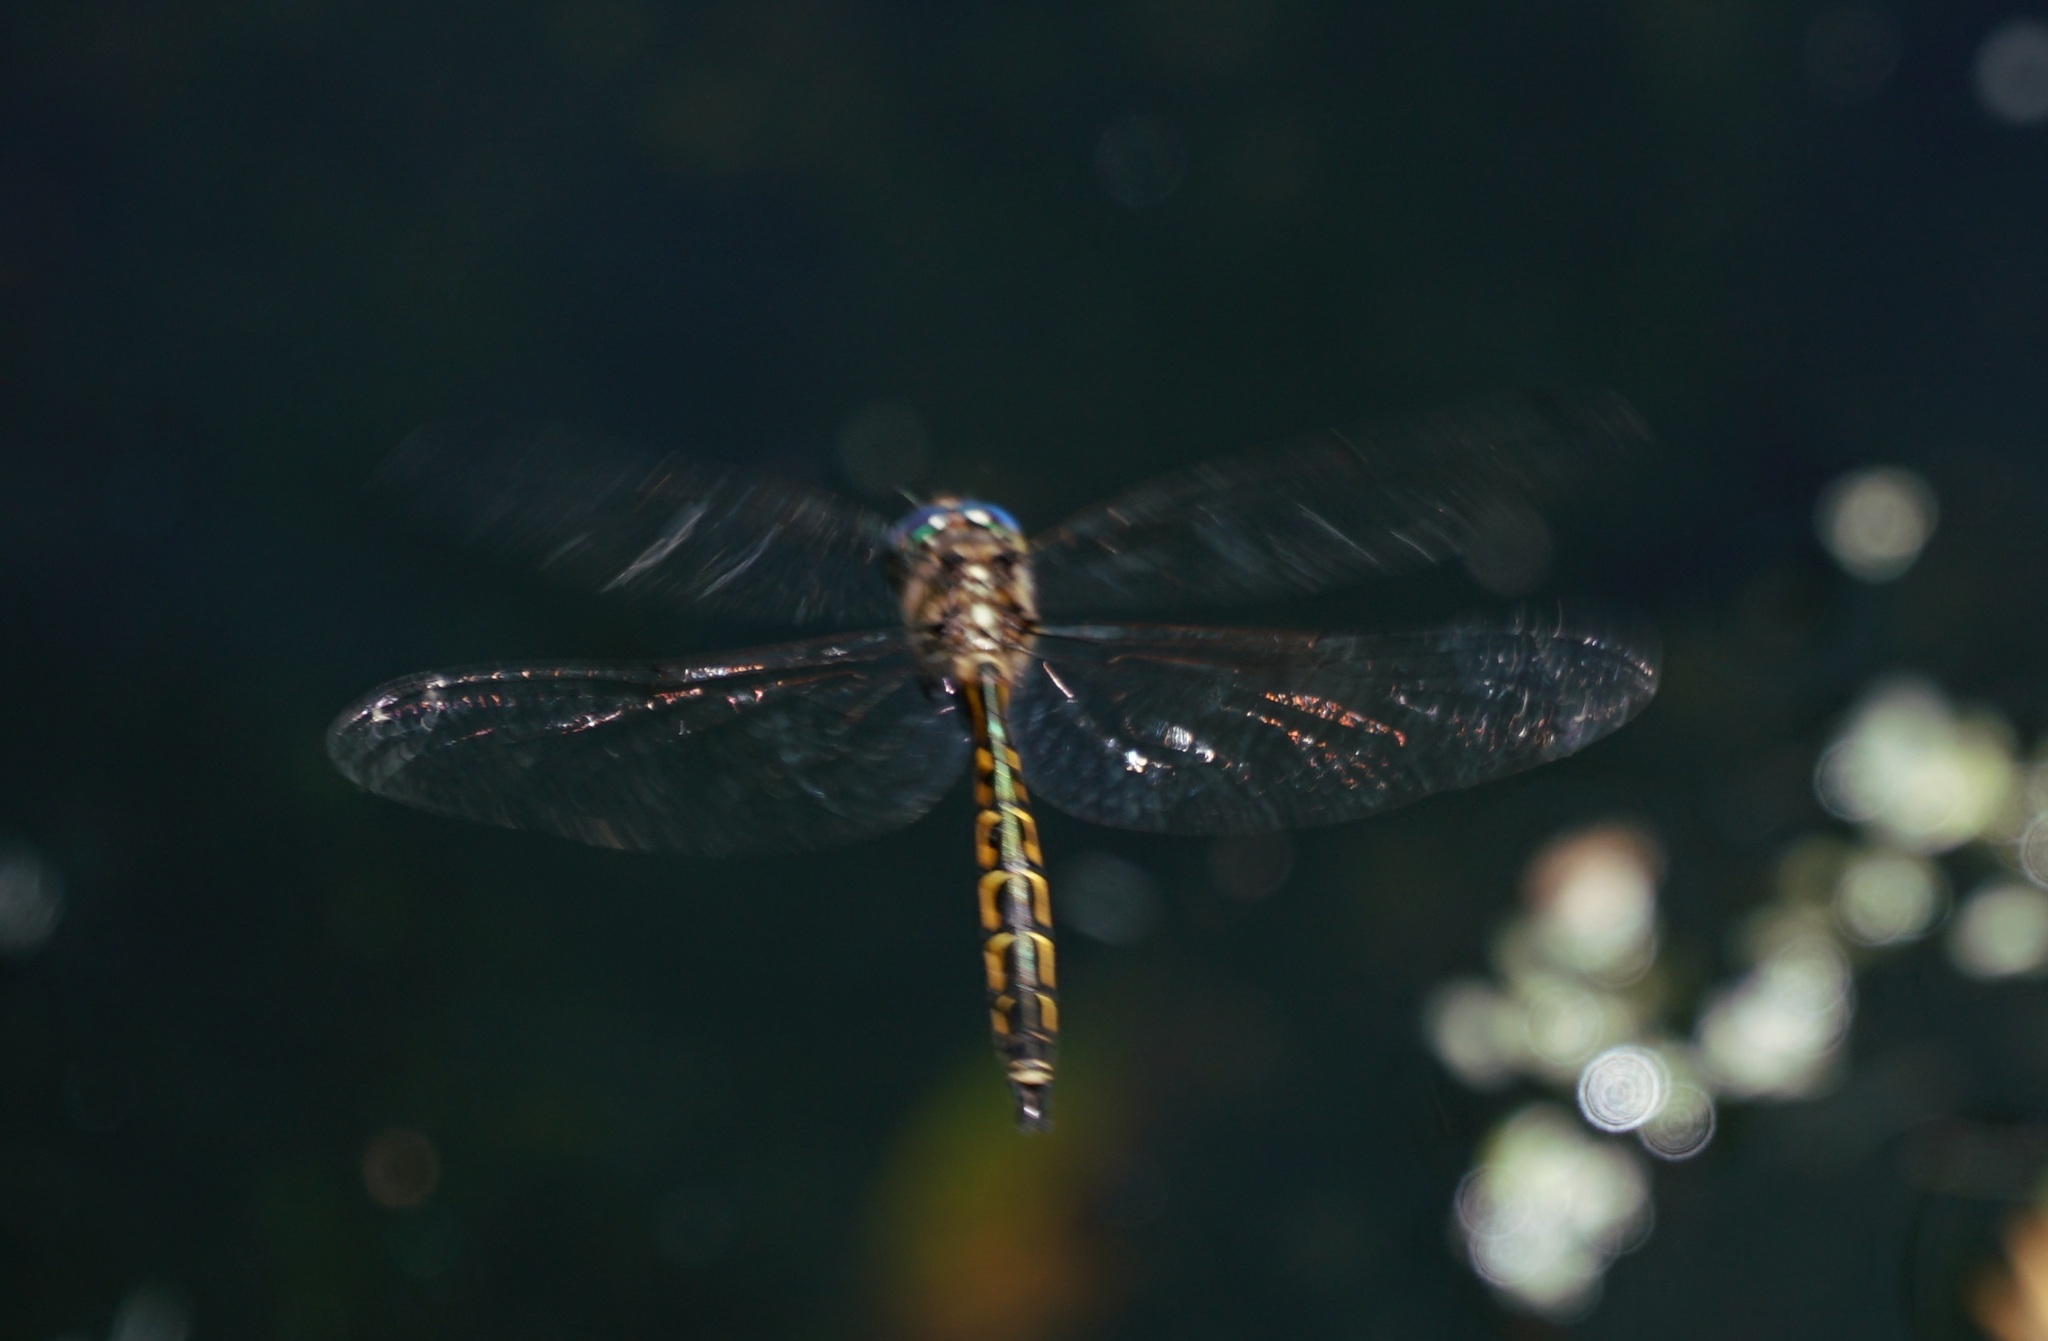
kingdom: Animalia
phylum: Arthropoda
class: Insecta
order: Odonata
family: Corduliidae
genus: Hemicordulia
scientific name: Hemicordulia australiae
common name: Sentry dragonfly
